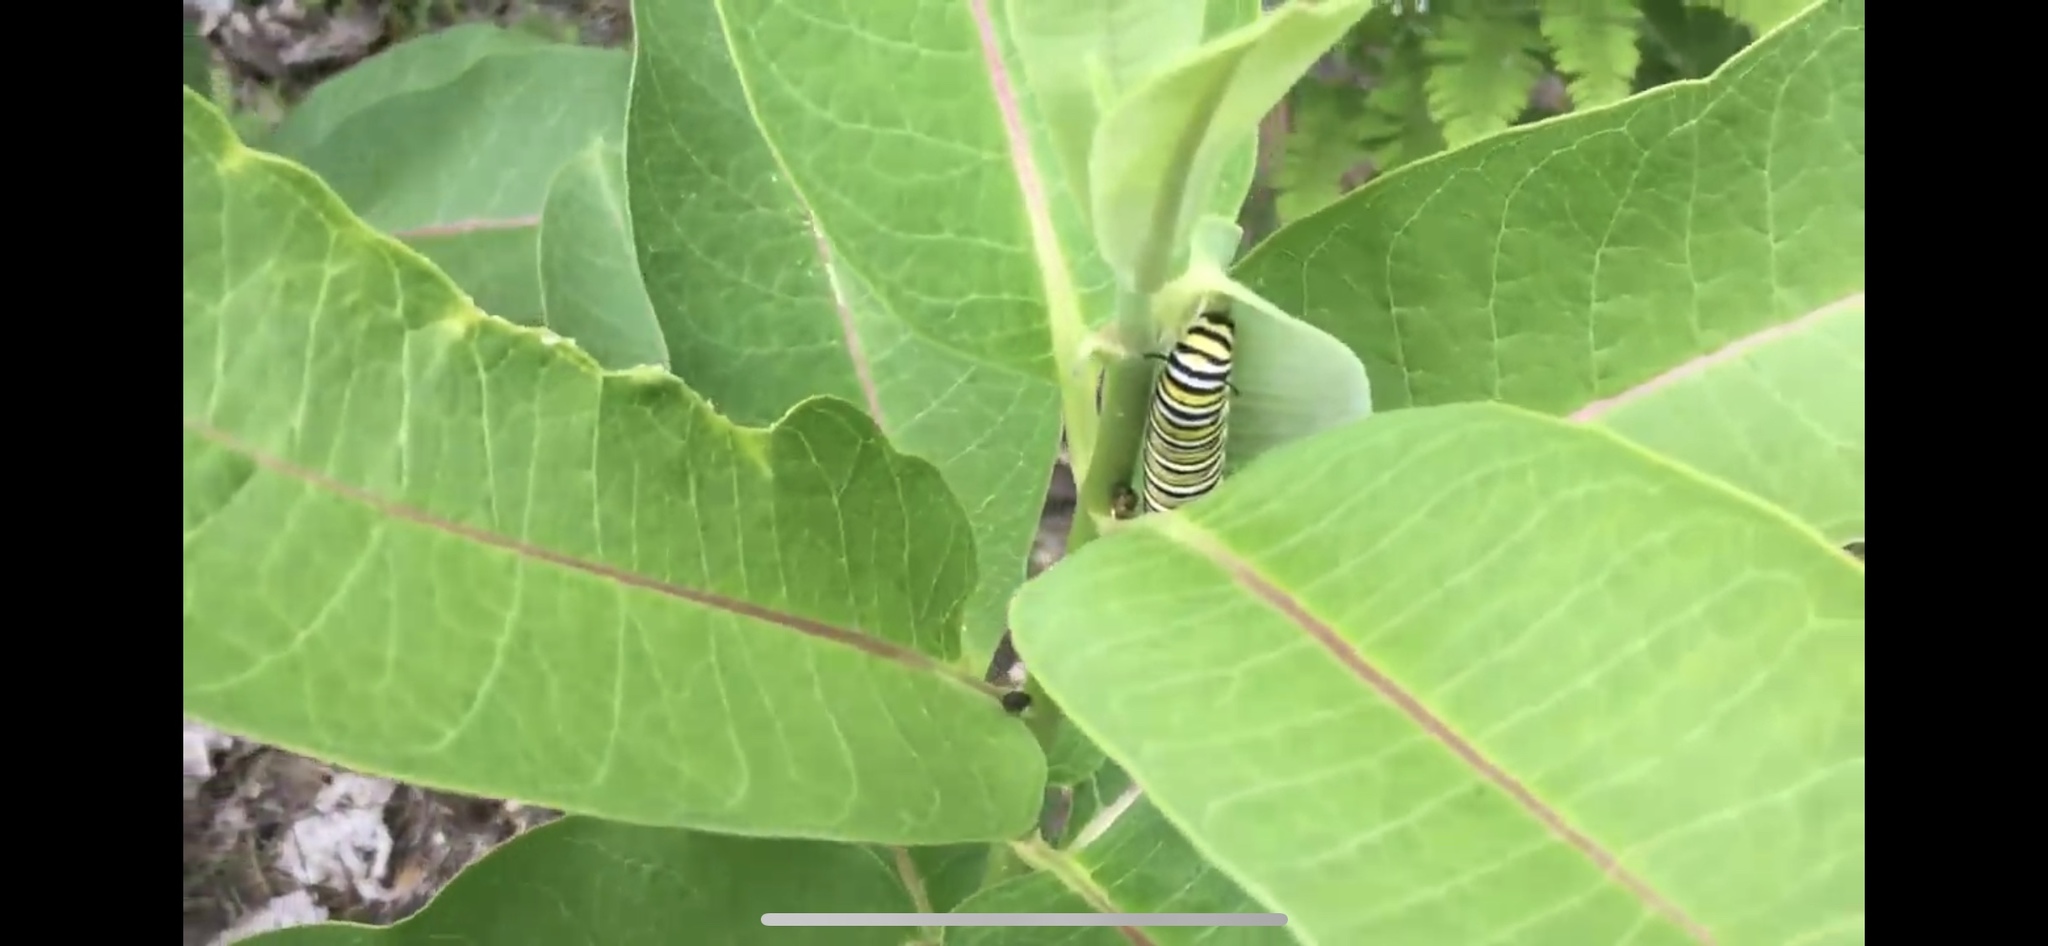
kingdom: Animalia
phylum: Arthropoda
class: Insecta
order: Lepidoptera
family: Nymphalidae
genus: Danaus
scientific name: Danaus plexippus
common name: Monarch
